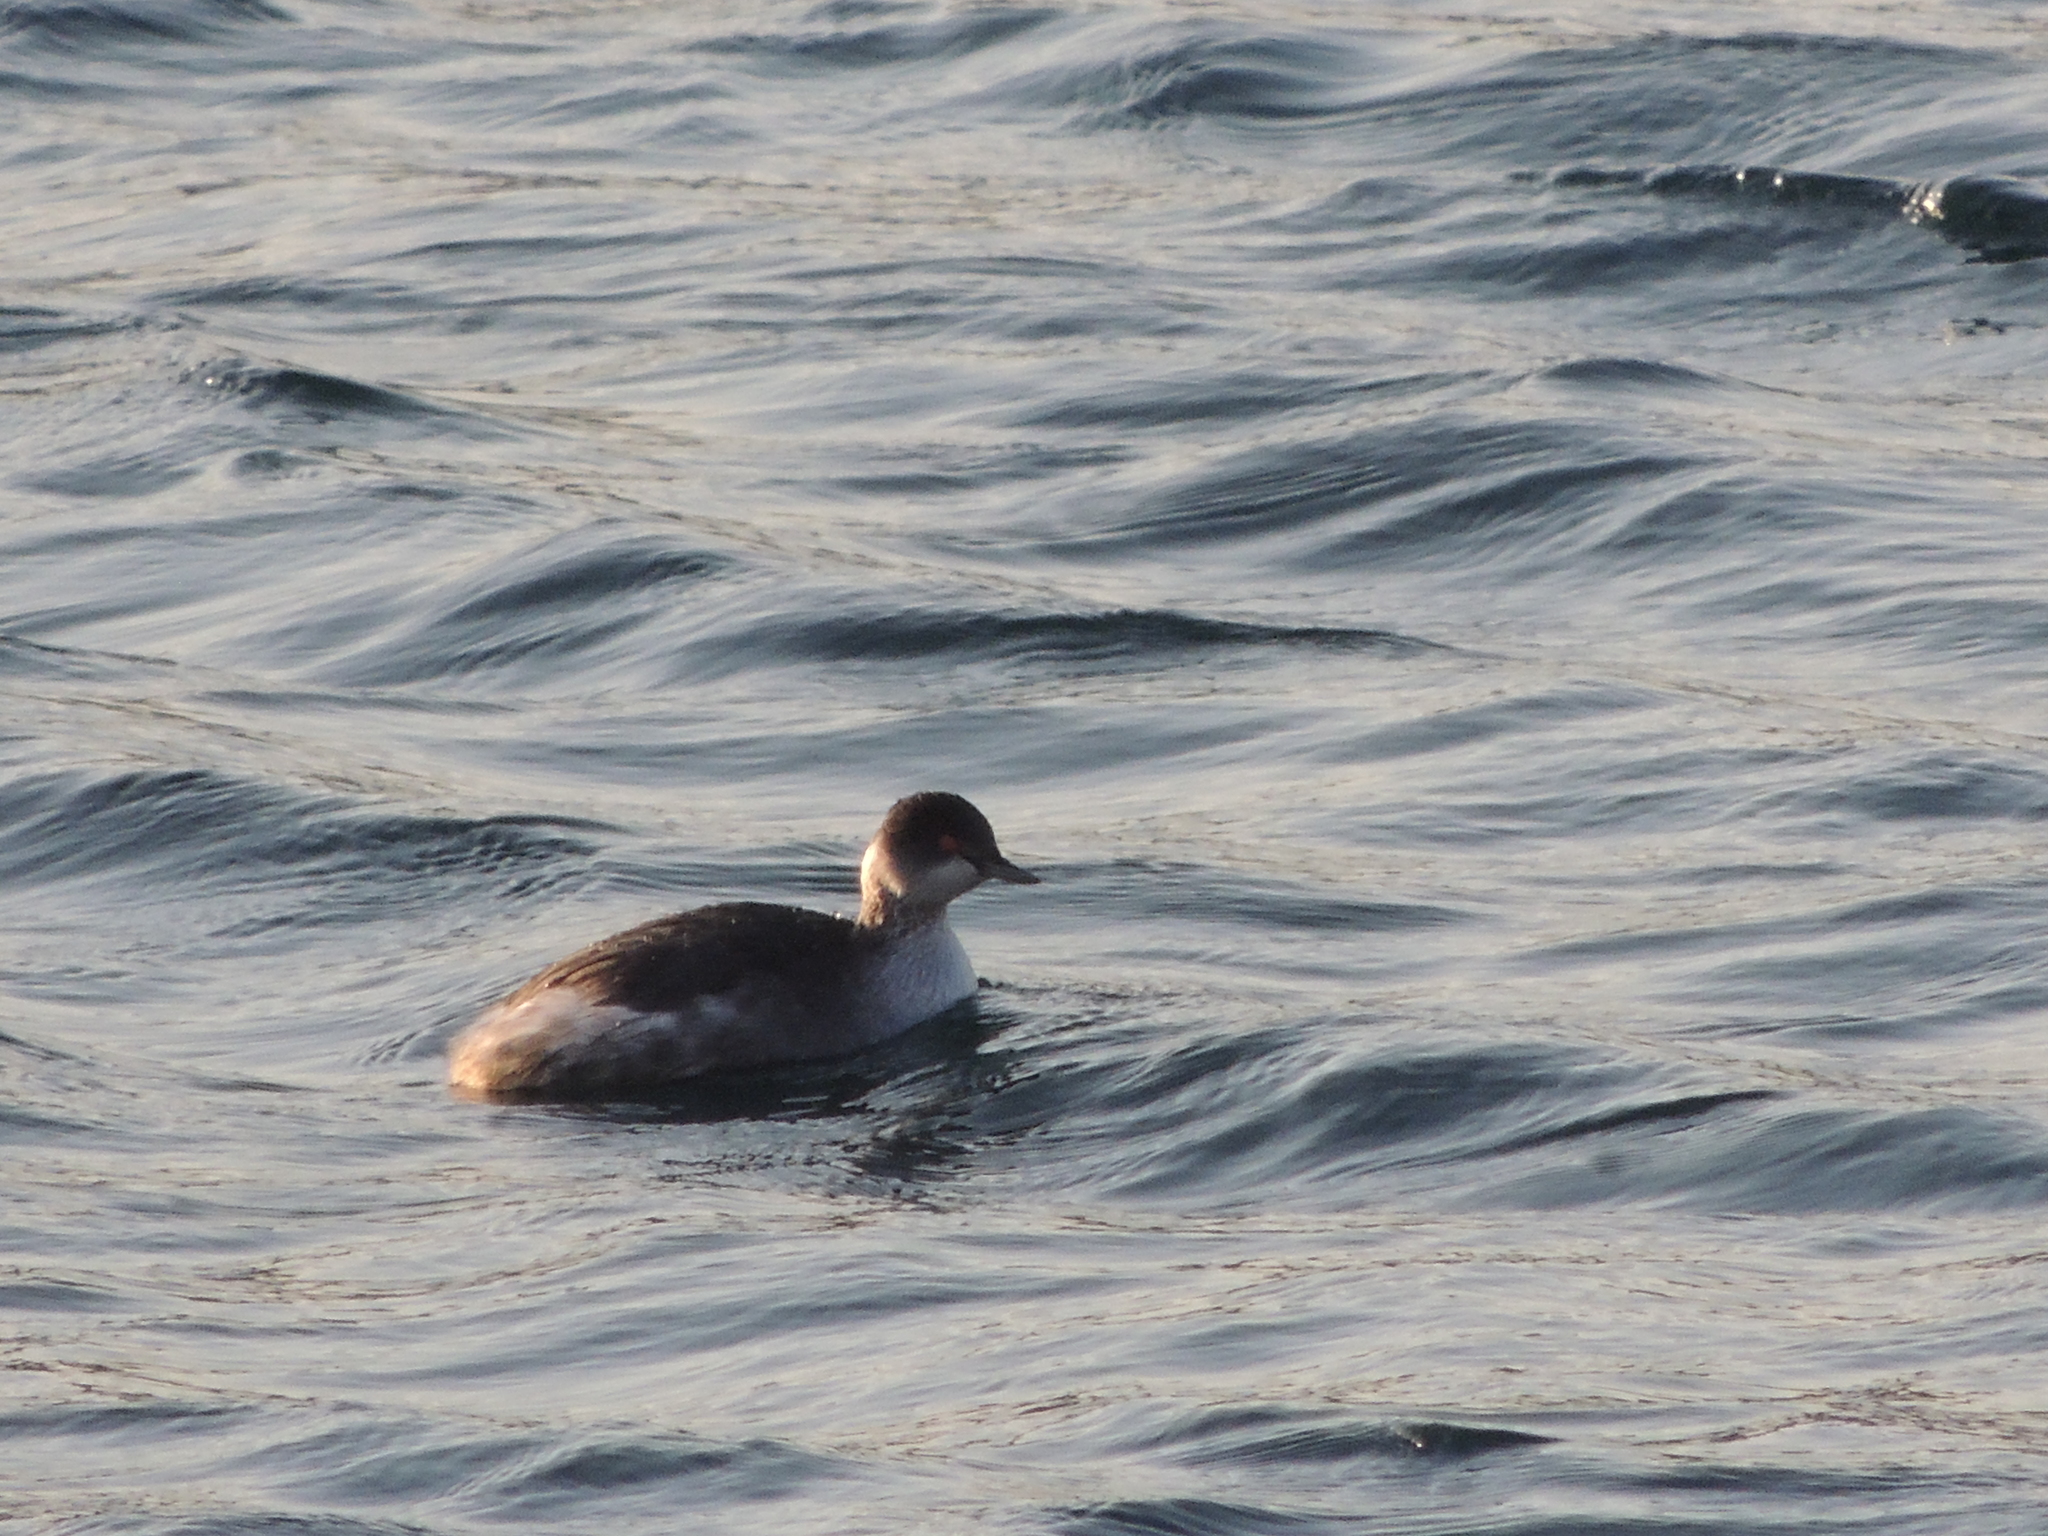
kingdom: Animalia
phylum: Chordata
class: Aves
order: Podicipediformes
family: Podicipedidae
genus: Podiceps
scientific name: Podiceps nigricollis
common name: Black-necked grebe
